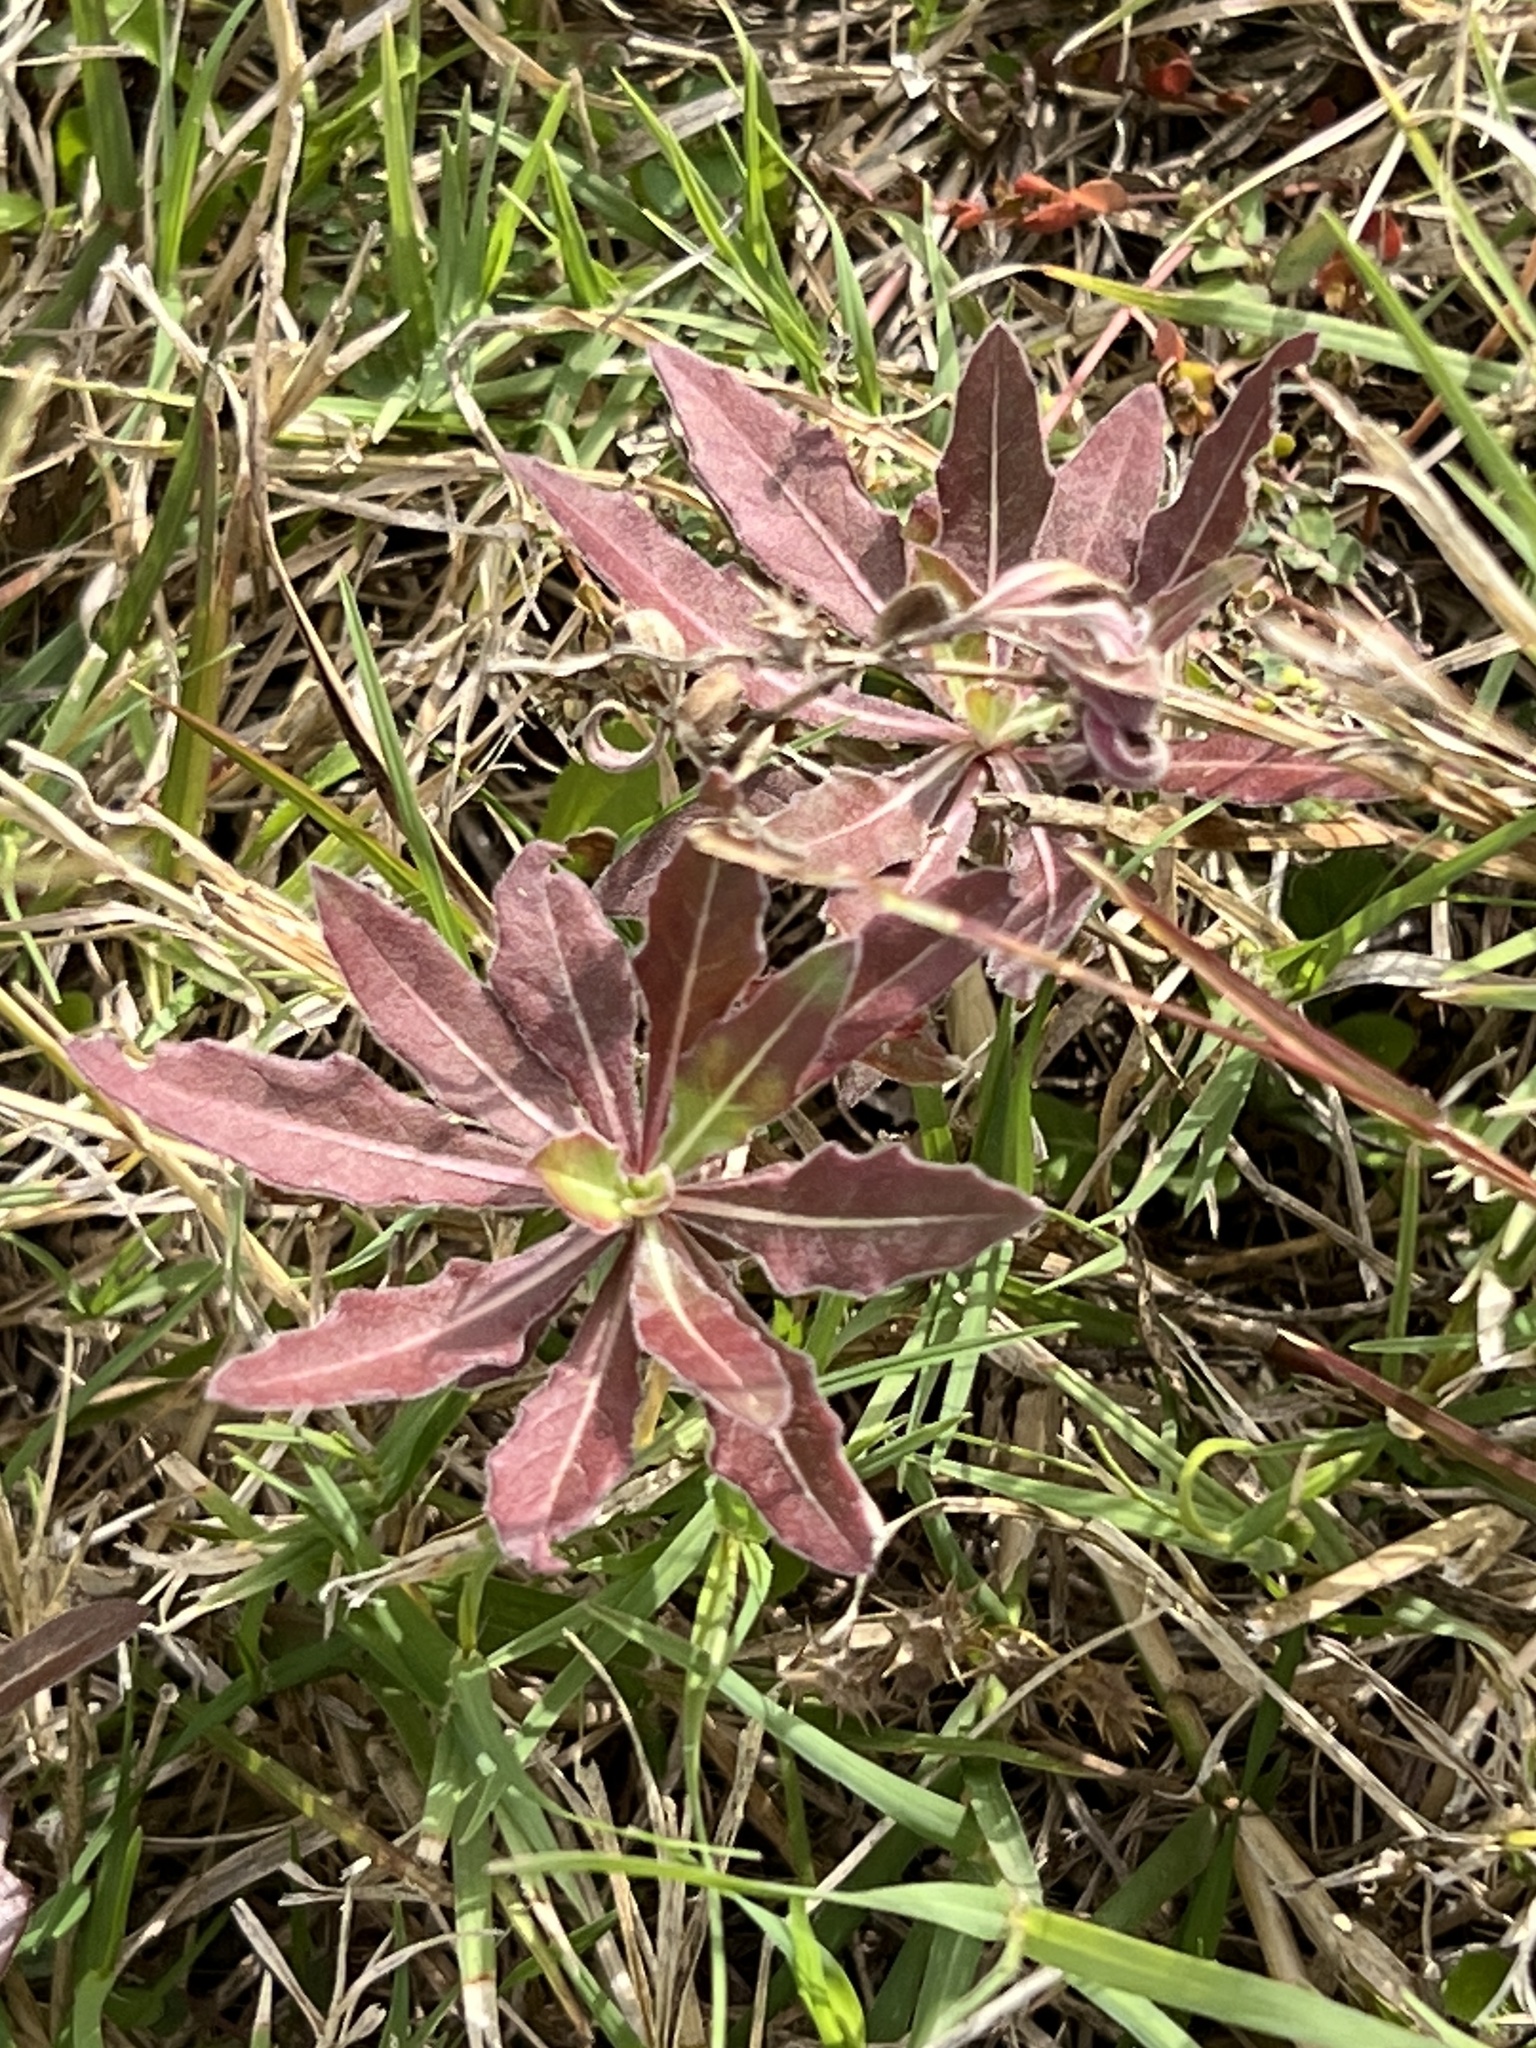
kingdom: Plantae
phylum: Tracheophyta
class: Magnoliopsida
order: Lamiales
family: Verbenaceae
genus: Phyla
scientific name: Phyla nodiflora
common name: Frogfruit
